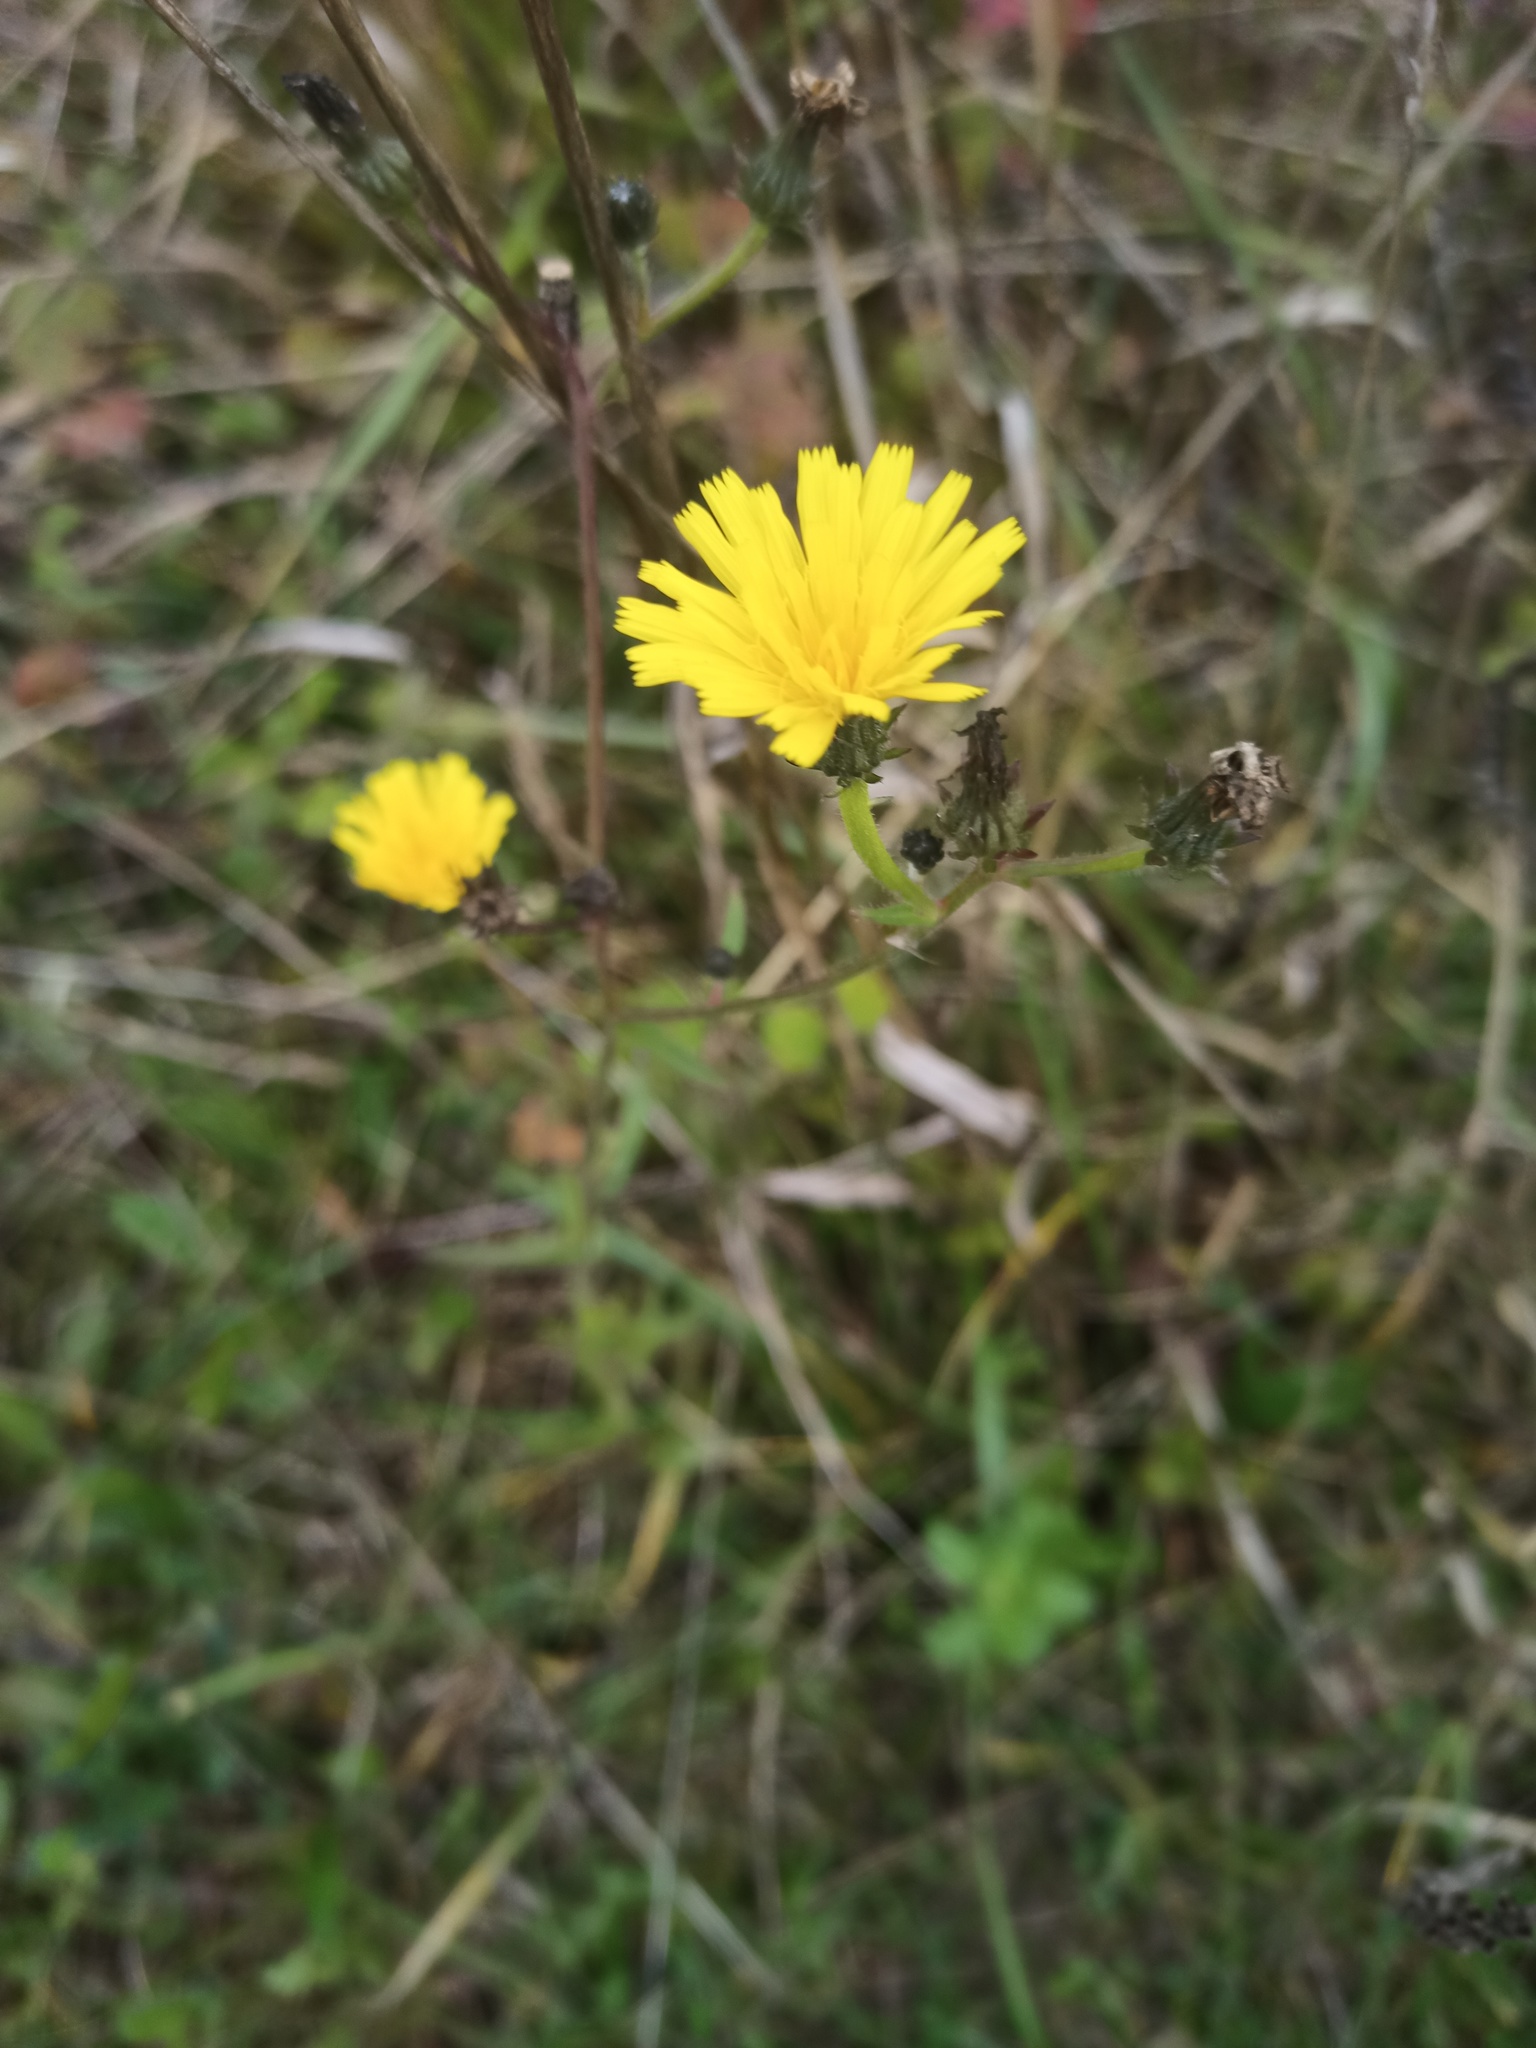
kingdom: Plantae
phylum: Tracheophyta
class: Magnoliopsida
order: Asterales
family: Asteraceae
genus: Picris
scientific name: Picris hieracioides
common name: Hawkweed oxtongue
